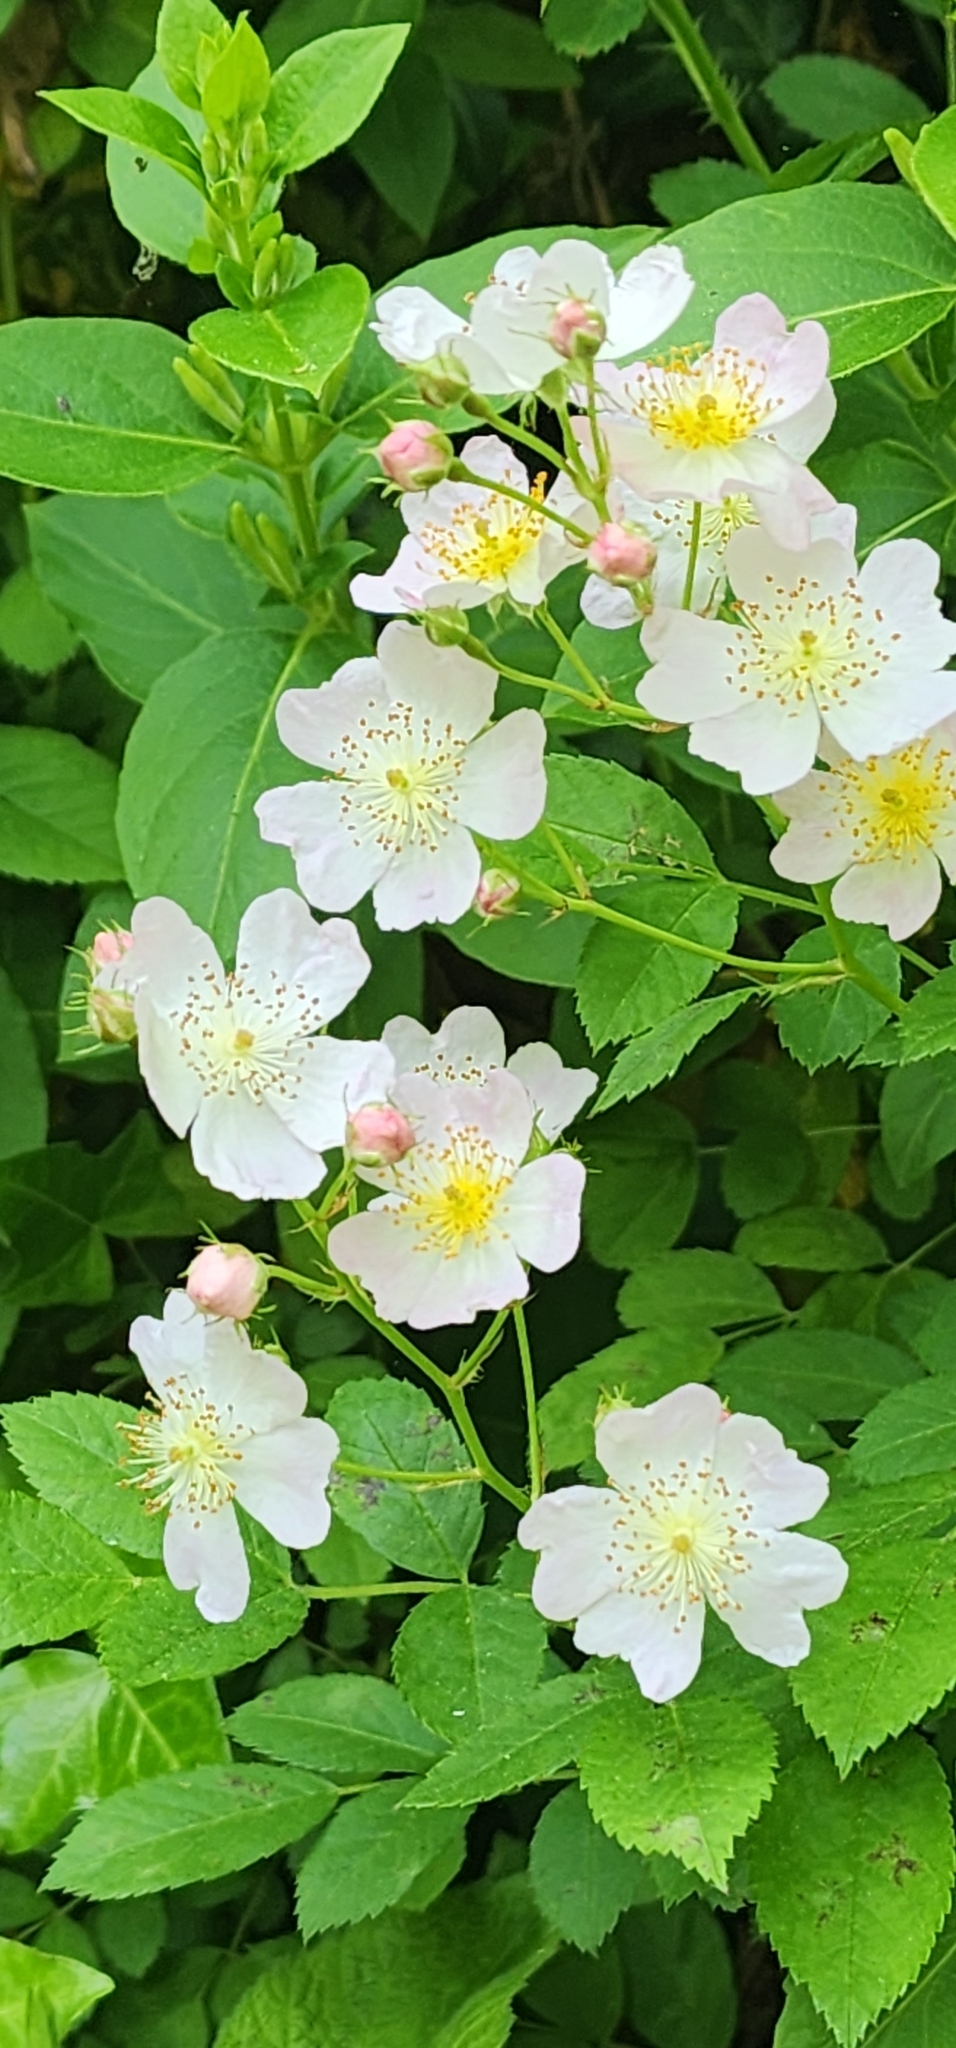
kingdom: Plantae
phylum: Tracheophyta
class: Magnoliopsida
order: Rosales
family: Rosaceae
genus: Rosa
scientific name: Rosa multiflora
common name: Multiflora rose
